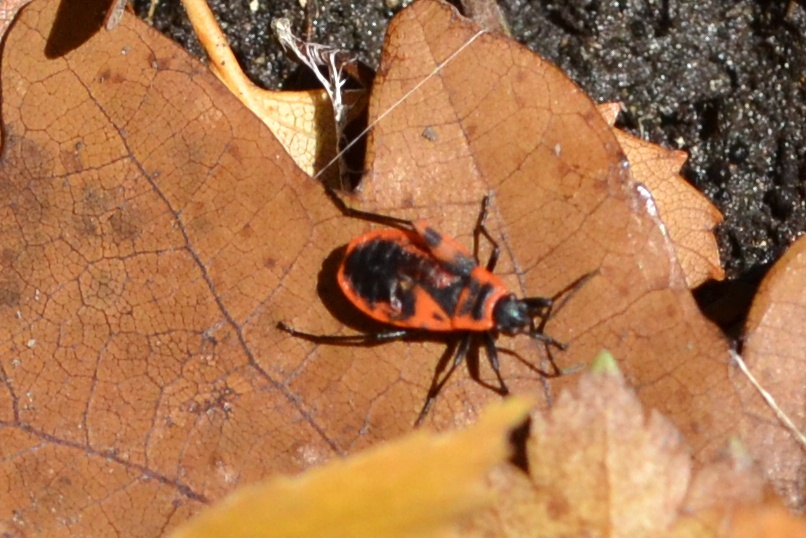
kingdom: Animalia
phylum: Arthropoda
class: Insecta
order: Hemiptera
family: Pyrrhocoridae
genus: Pyrrhocoris
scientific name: Pyrrhocoris apterus
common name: Firebug
